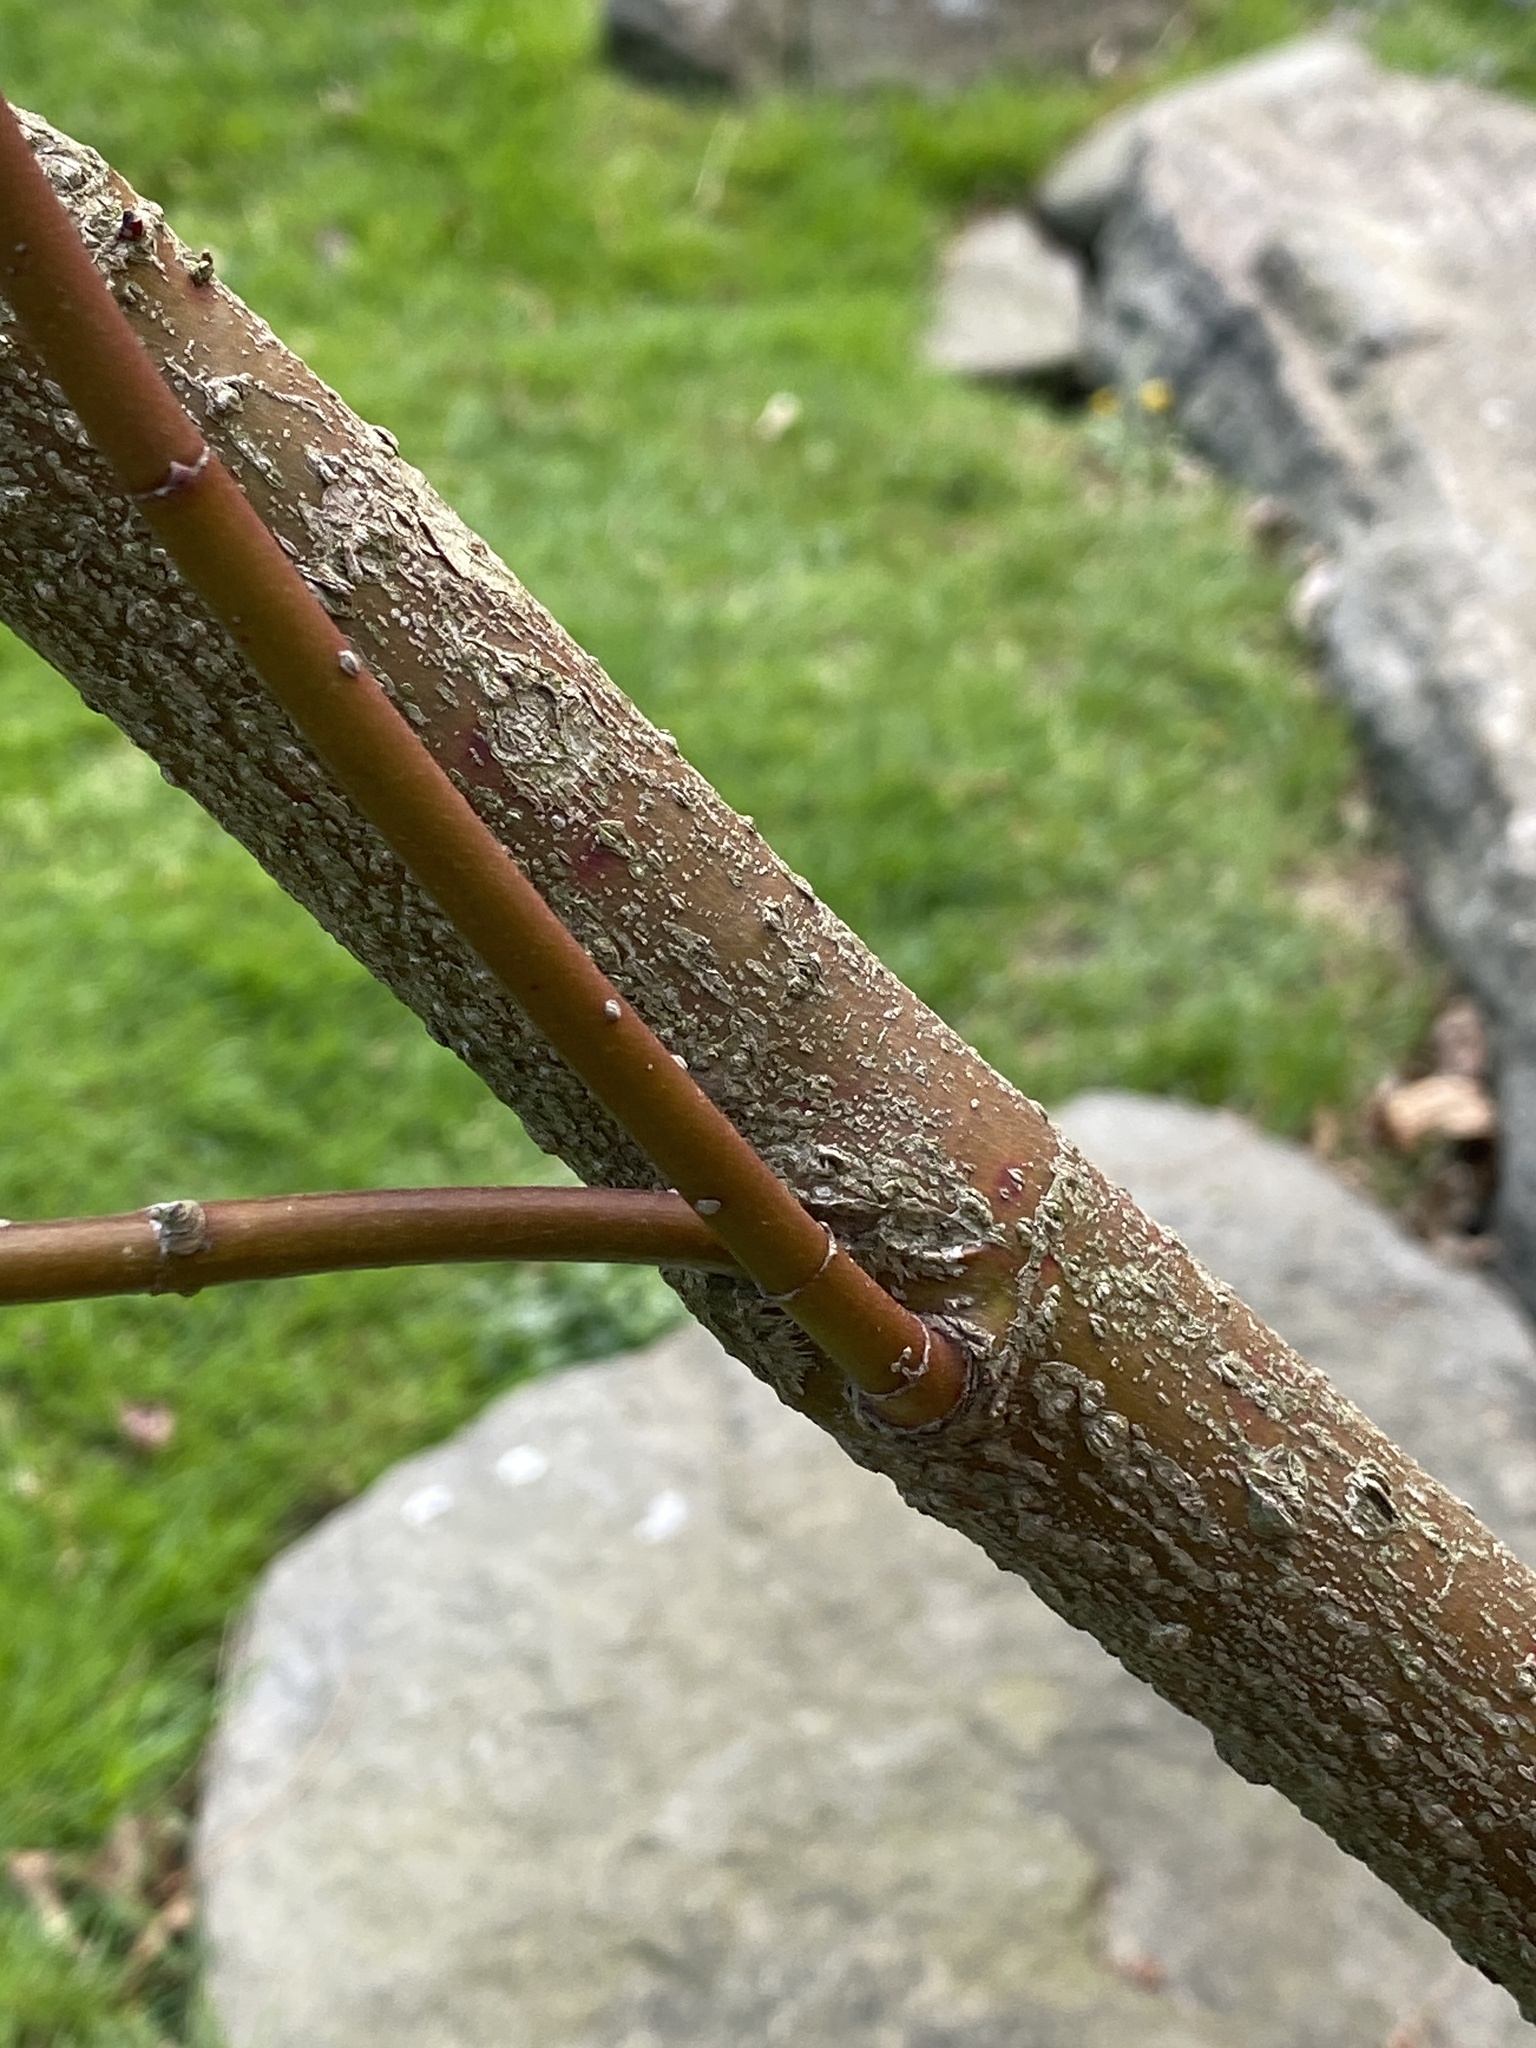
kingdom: Plantae
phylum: Tracheophyta
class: Magnoliopsida
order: Cornales
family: Cornaceae
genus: Cornus
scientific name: Cornus amomum
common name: Silky dogwood
